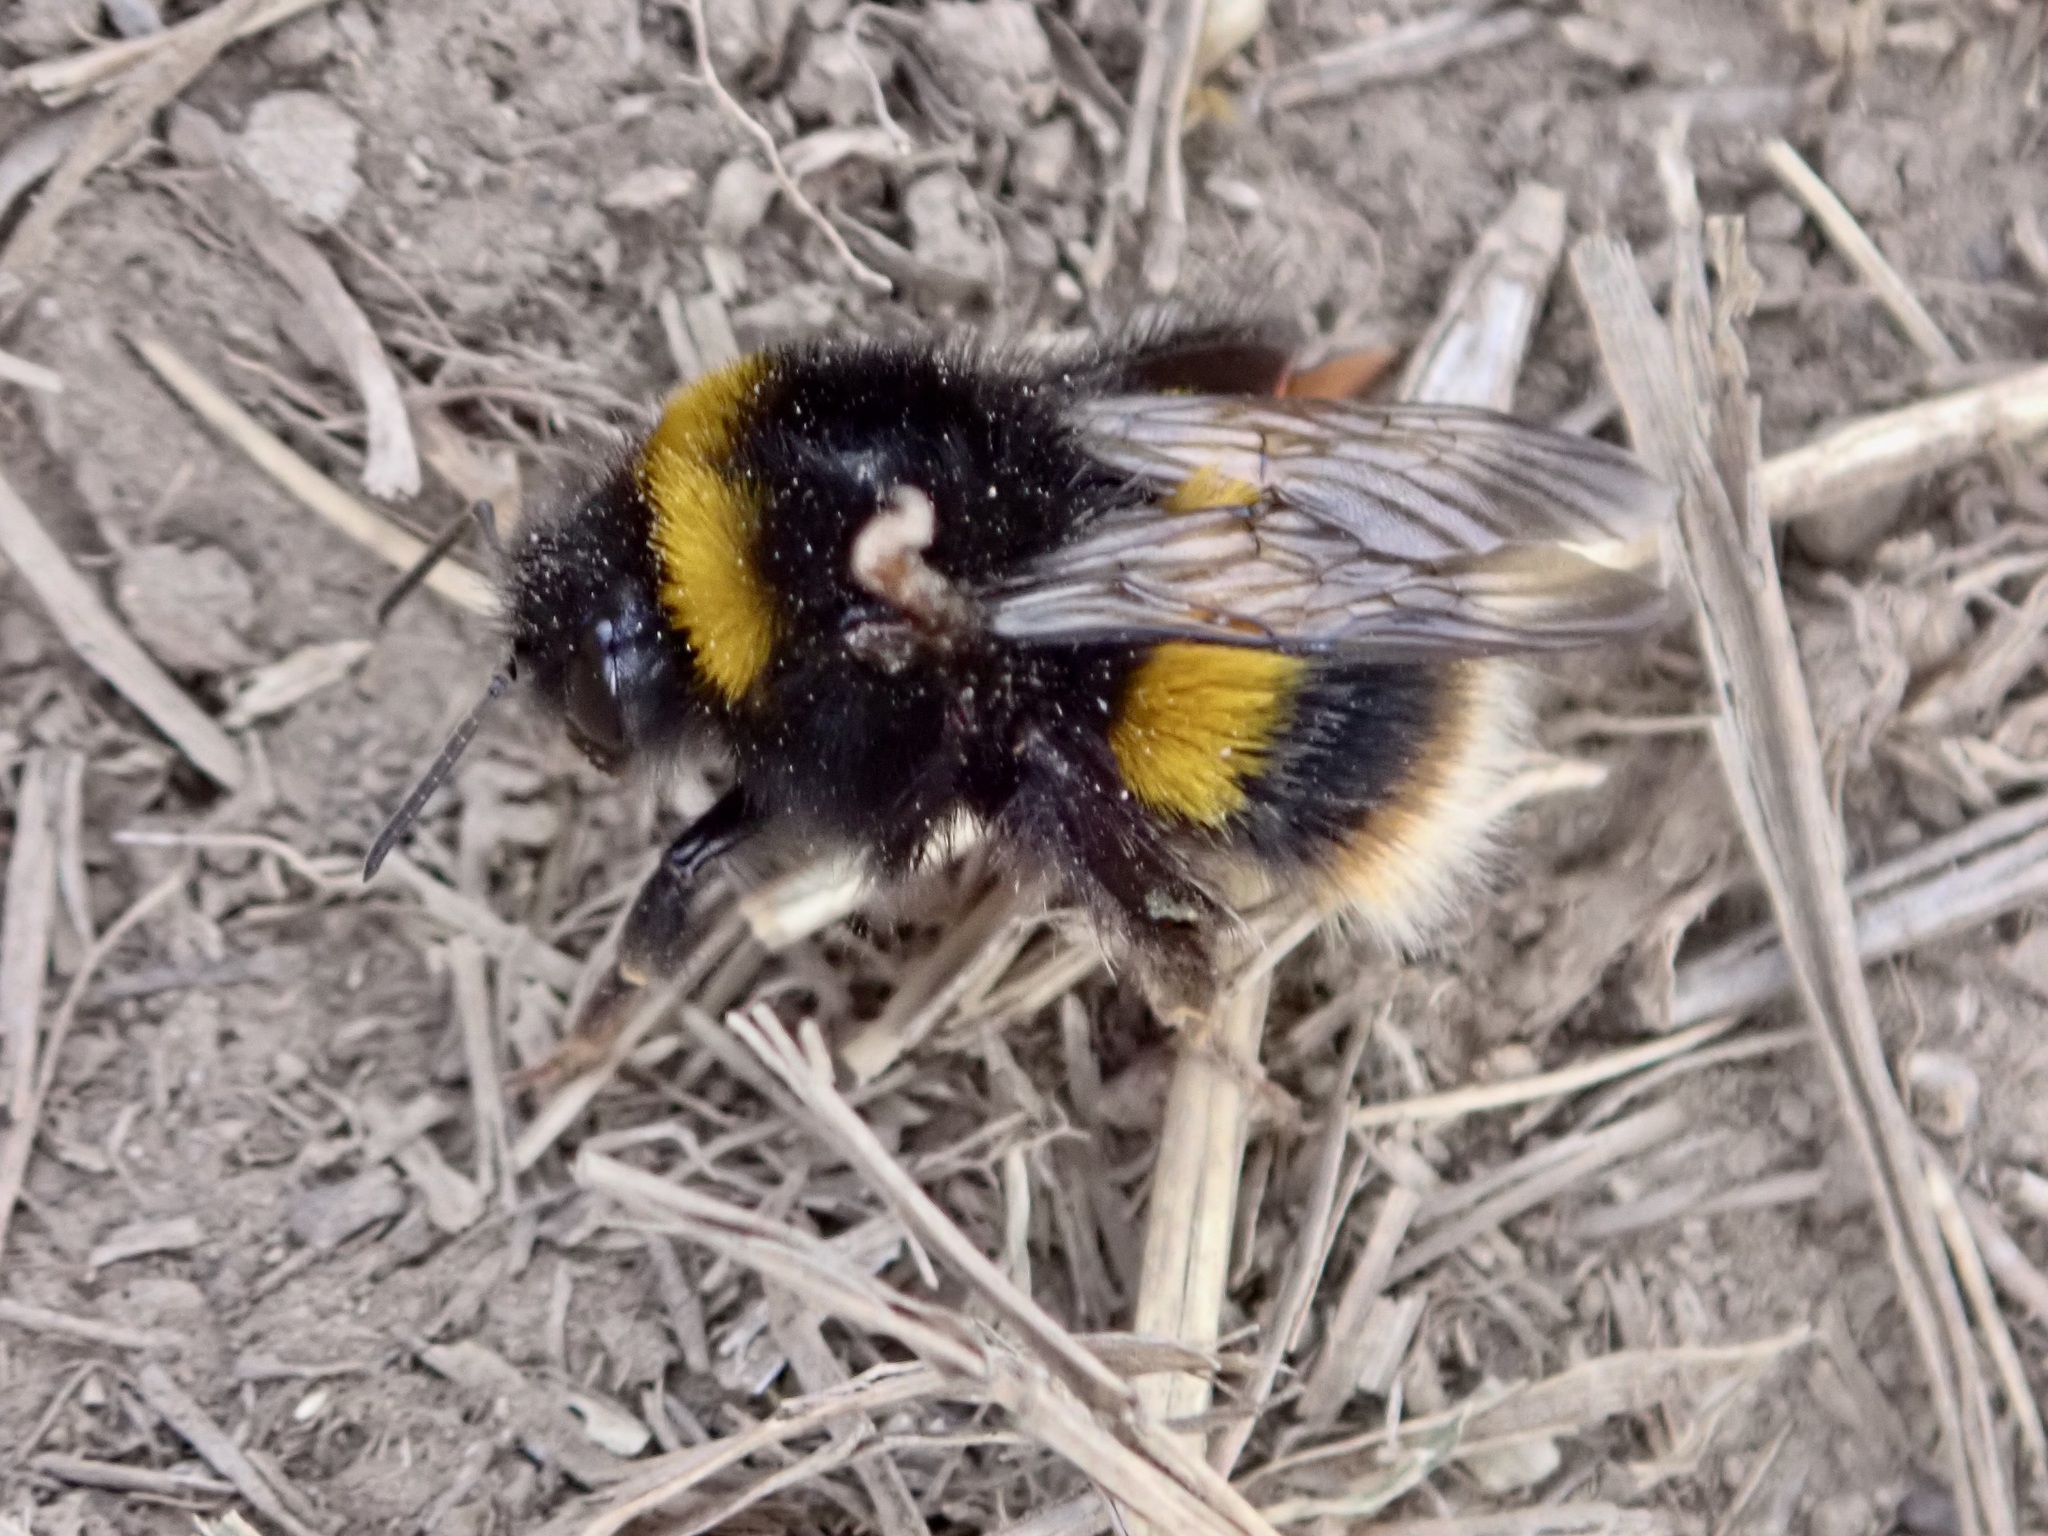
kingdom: Animalia
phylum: Arthropoda
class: Insecta
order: Hymenoptera
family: Apidae
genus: Bombus
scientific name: Bombus terrestris
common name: Buff-tailed bumblebee
